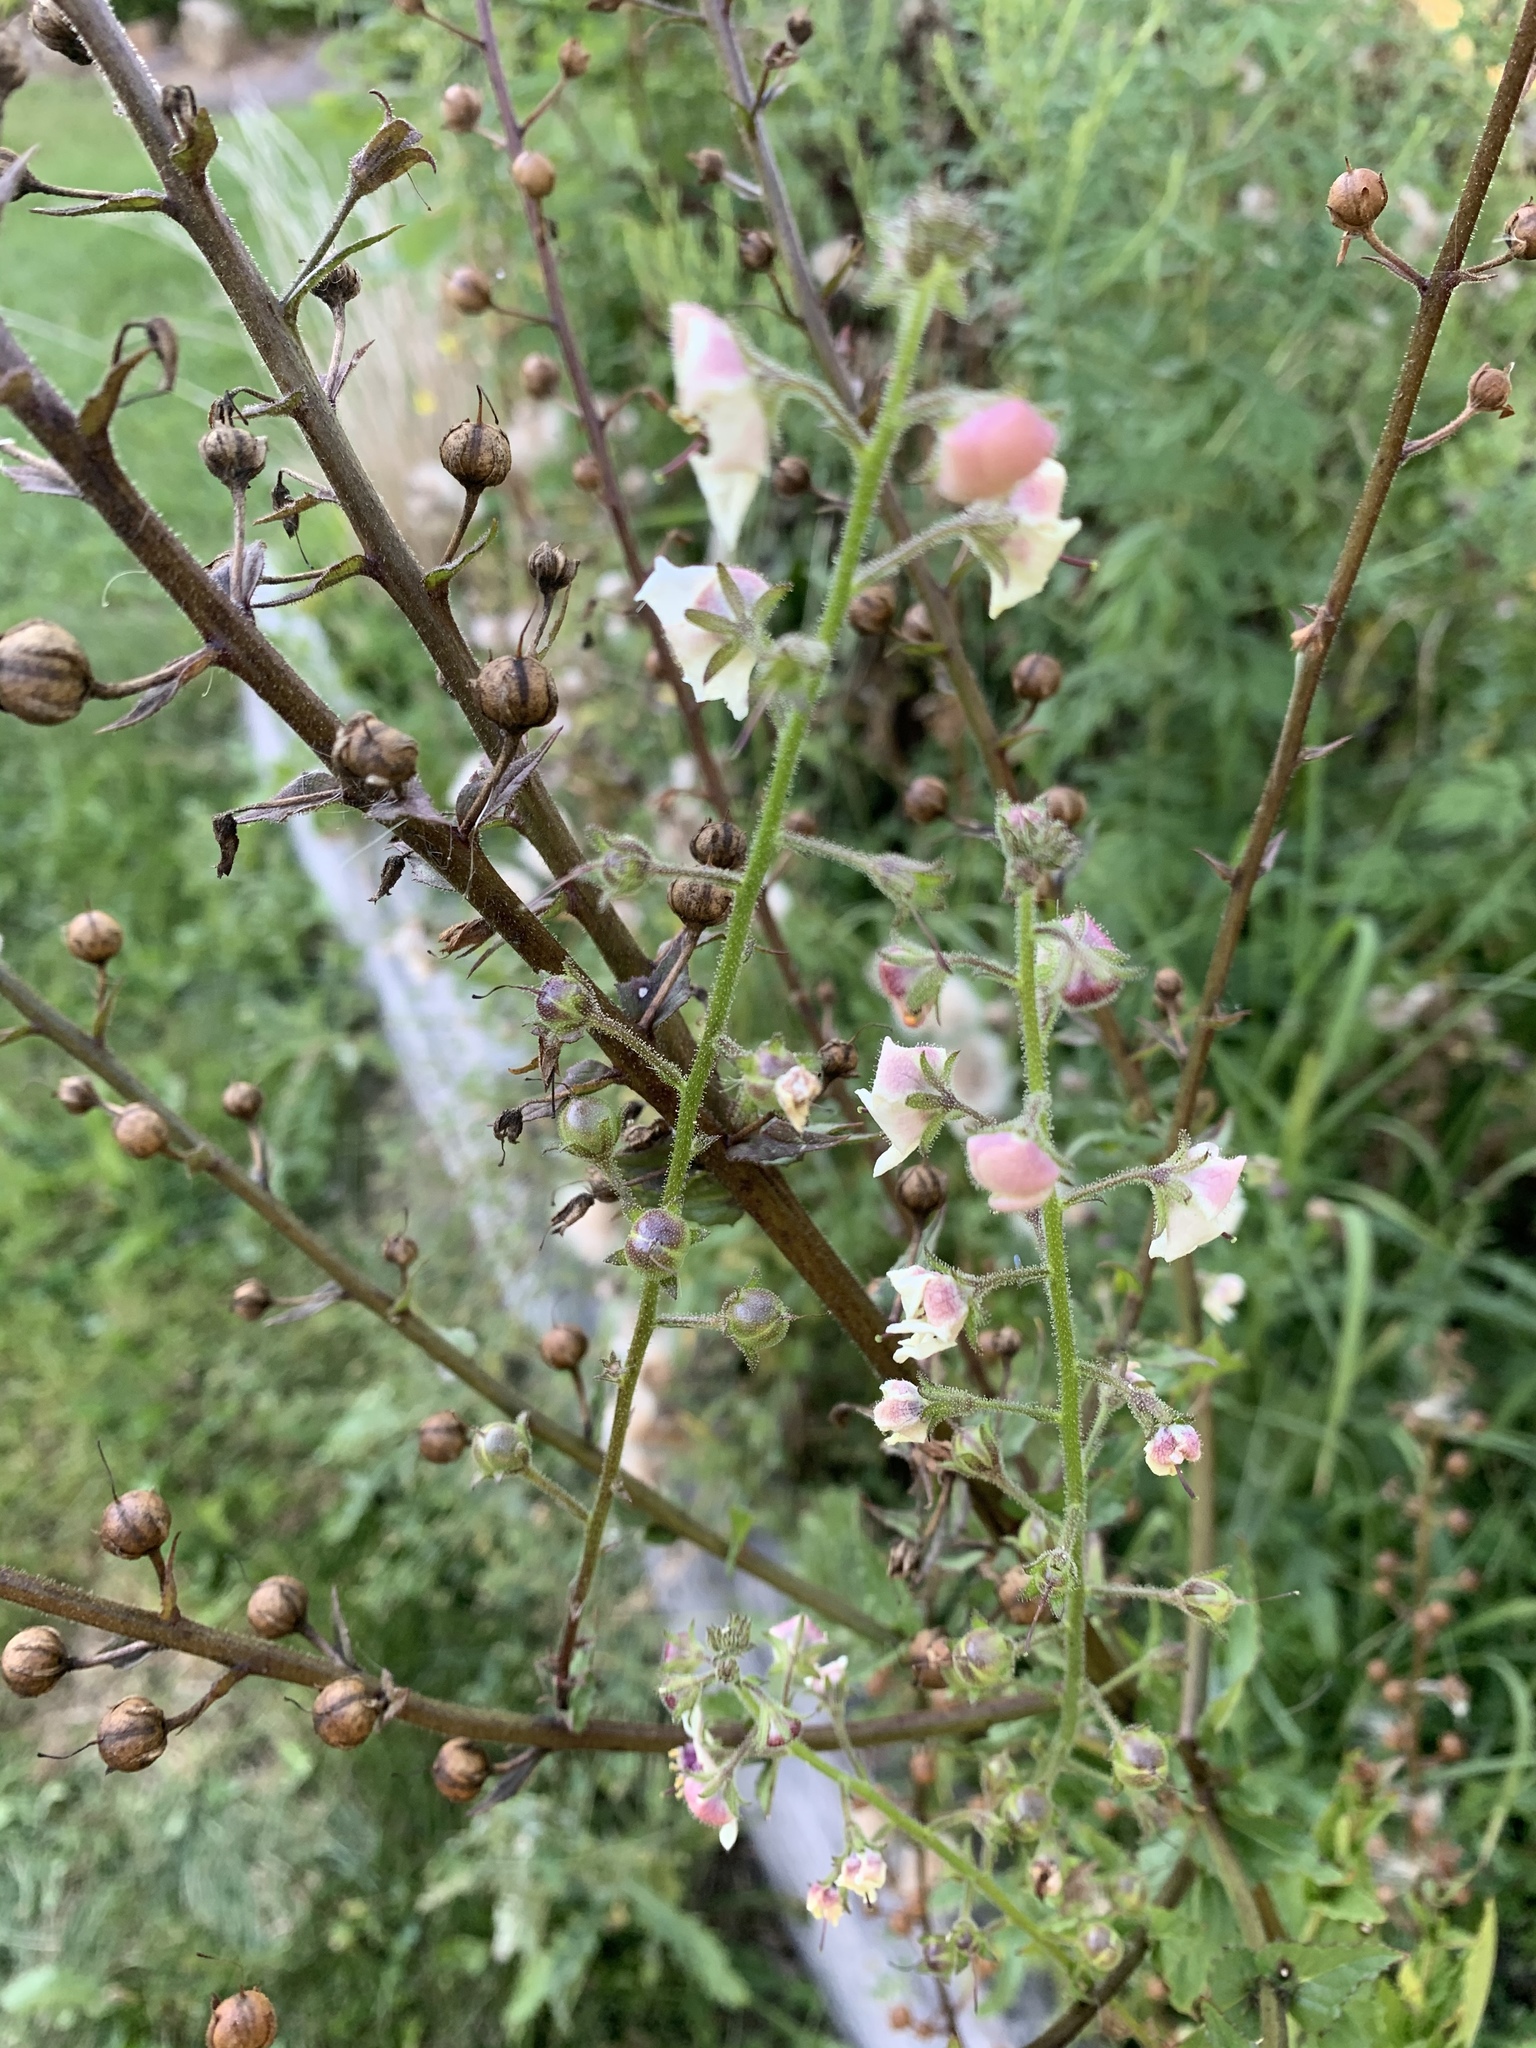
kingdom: Plantae
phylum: Tracheophyta
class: Magnoliopsida
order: Lamiales
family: Scrophulariaceae
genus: Verbascum
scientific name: Verbascum blattaria
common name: Moth mullein
